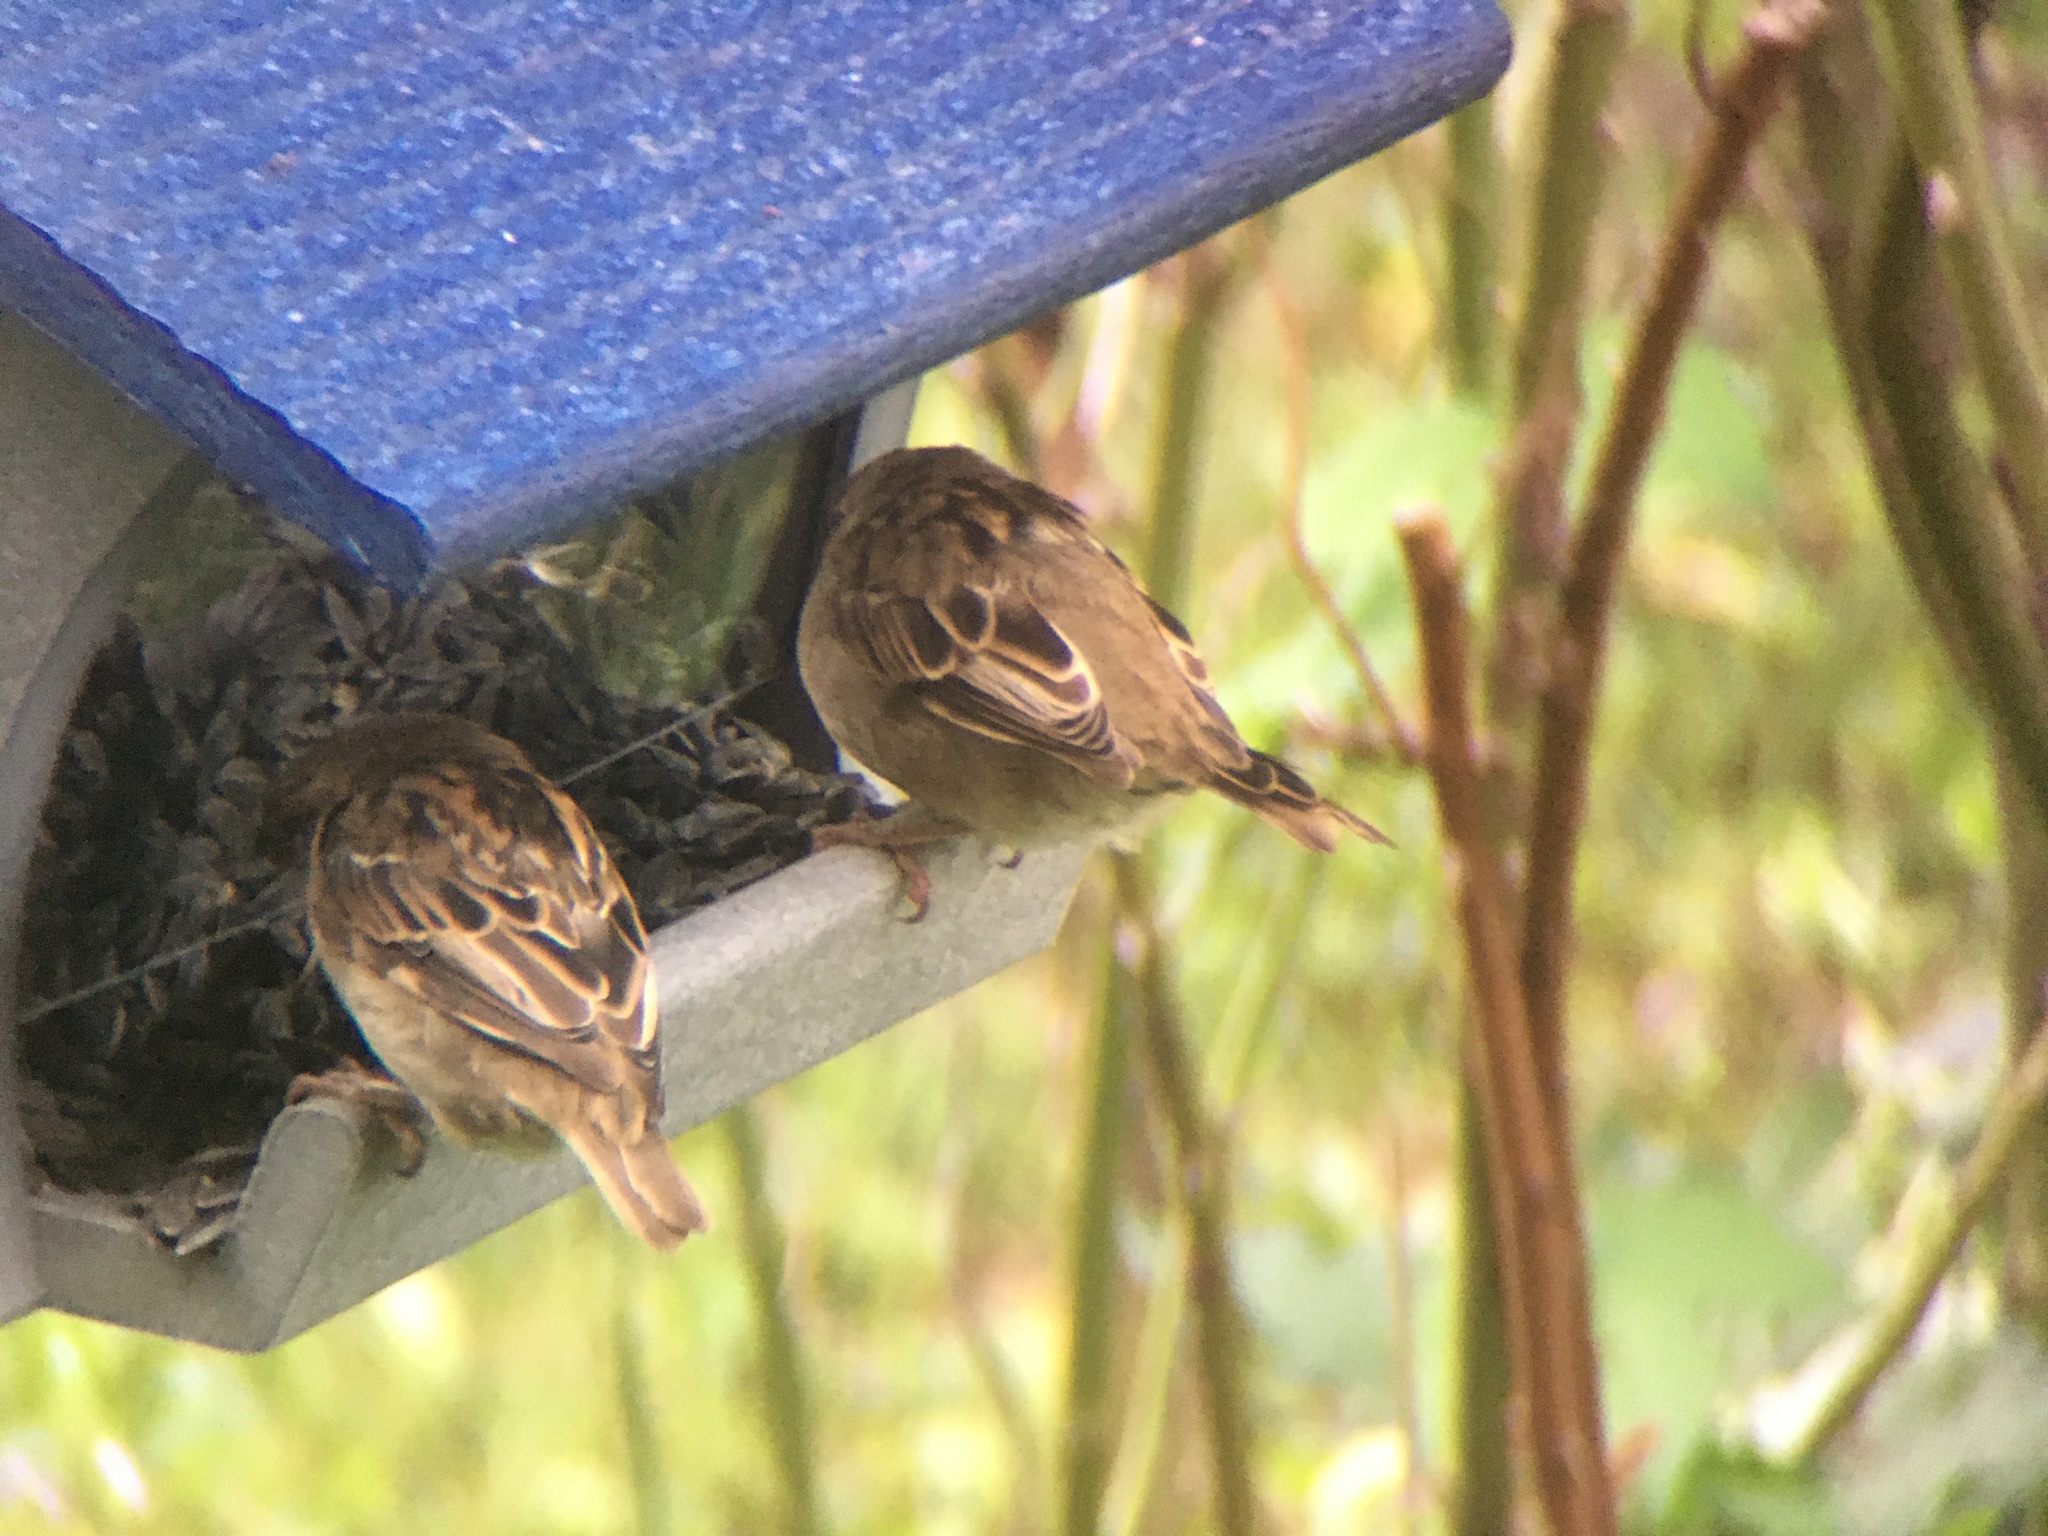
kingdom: Animalia
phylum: Chordata
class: Aves
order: Passeriformes
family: Passeridae
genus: Passer
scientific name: Passer domesticus
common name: House sparrow
